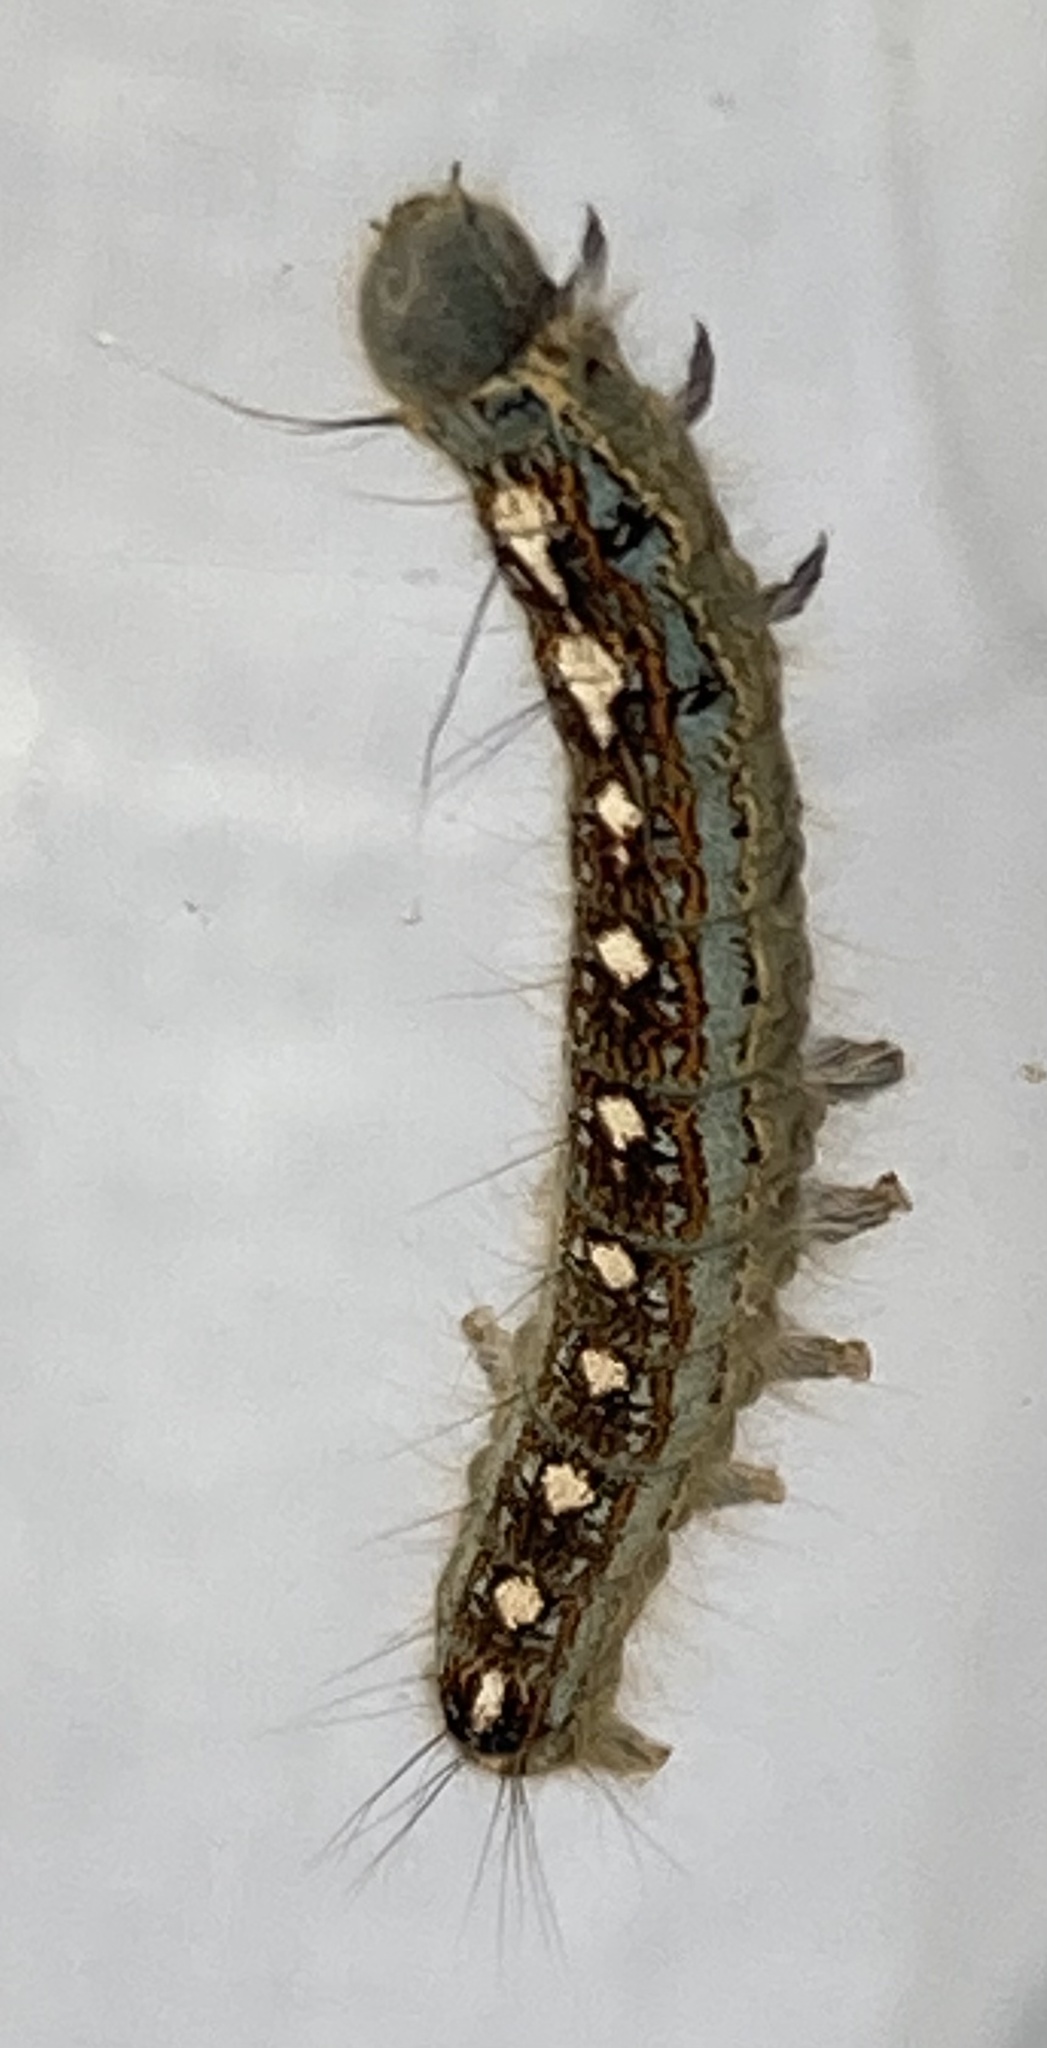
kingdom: Animalia
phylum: Arthropoda
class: Insecta
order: Lepidoptera
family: Lasiocampidae
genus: Malacosoma
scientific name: Malacosoma disstria
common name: Forest tent caterpillar
